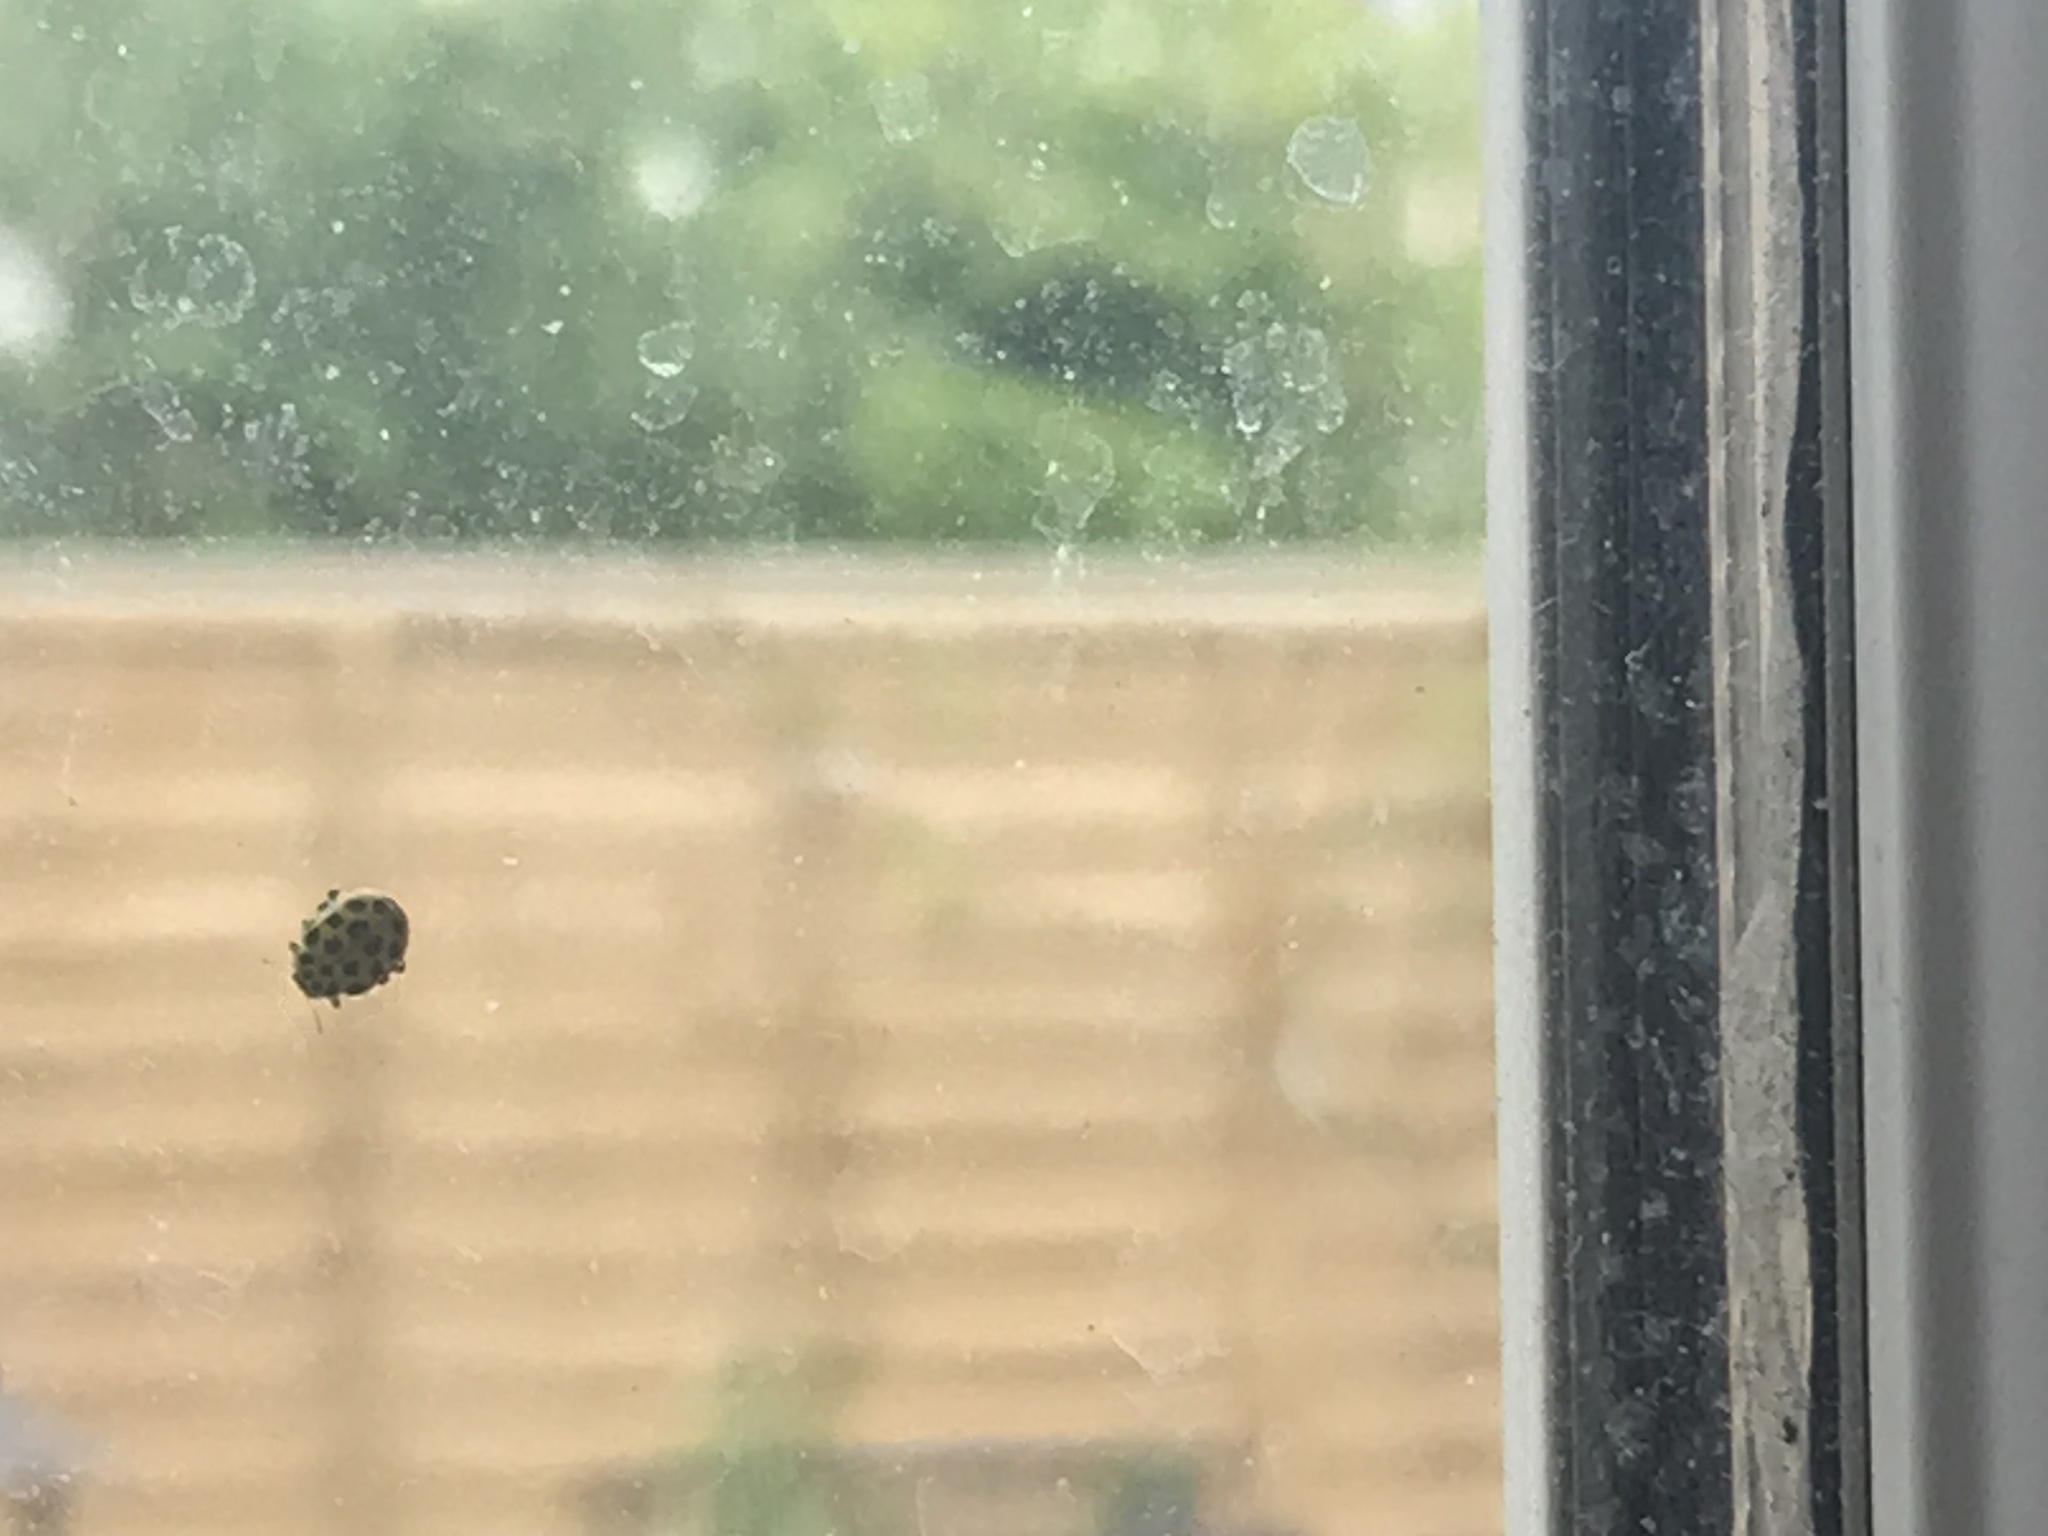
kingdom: Animalia
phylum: Arthropoda
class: Insecta
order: Coleoptera
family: Coccinellidae
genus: Psyllobora
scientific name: Psyllobora vigintiduopunctata
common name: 22-spot ladybird
